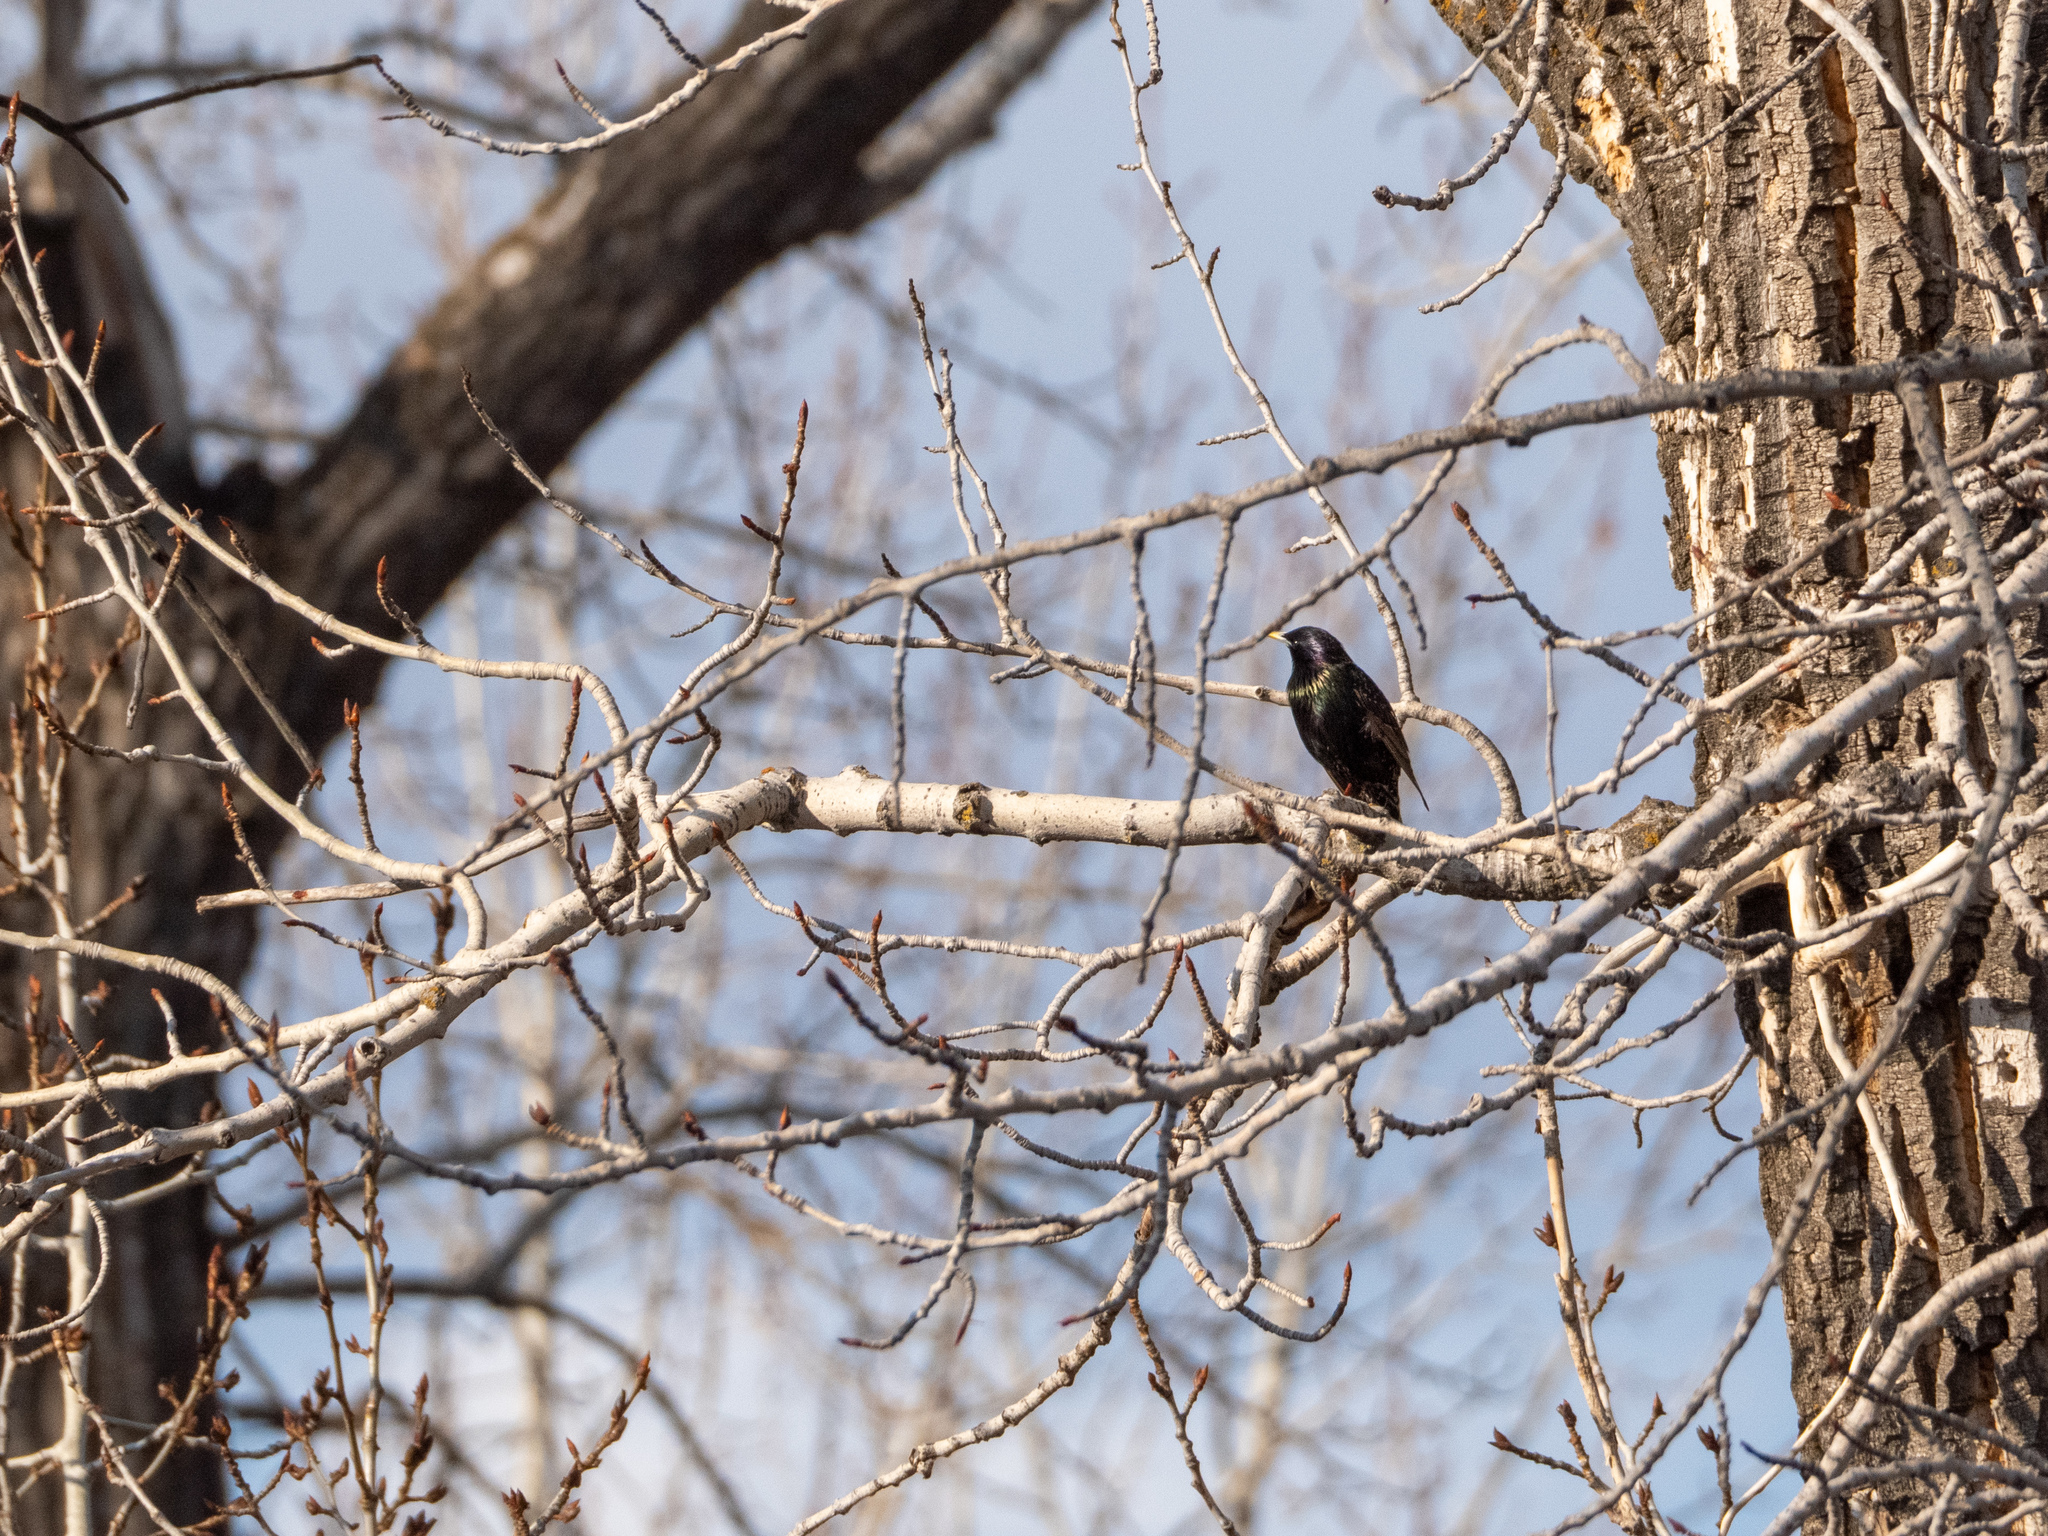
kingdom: Animalia
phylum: Chordata
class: Aves
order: Passeriformes
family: Sturnidae
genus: Sturnus
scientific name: Sturnus vulgaris
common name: Common starling
